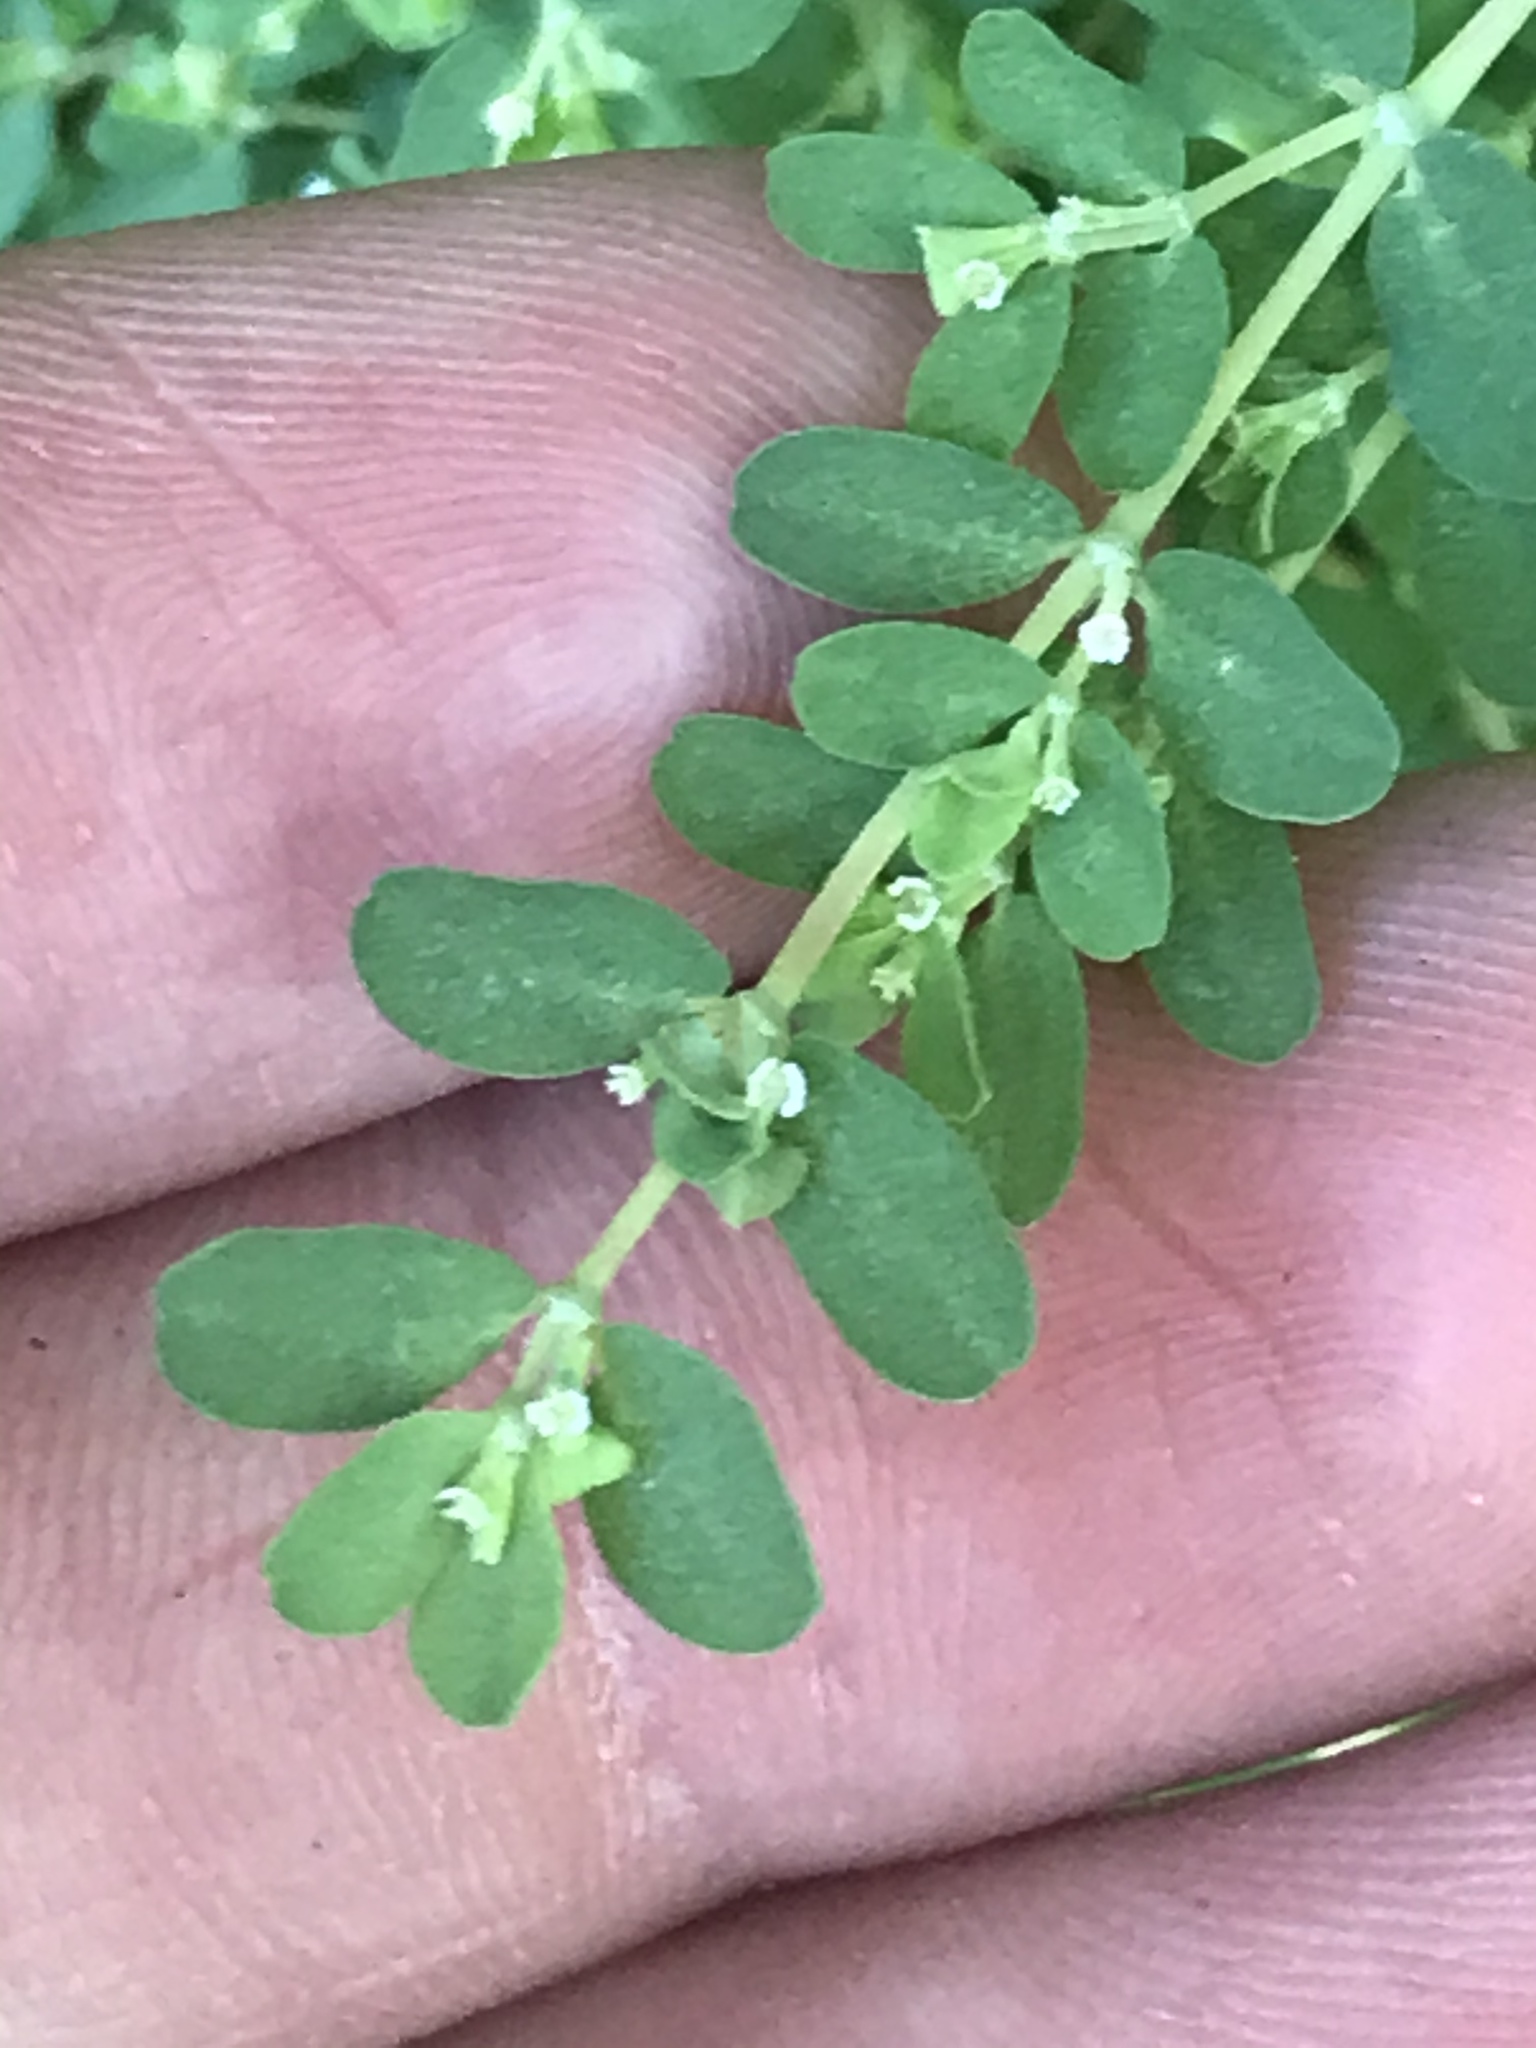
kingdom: Plantae
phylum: Tracheophyta
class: Magnoliopsida
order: Malpighiales
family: Euphorbiaceae
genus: Euphorbia
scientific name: Euphorbia serpens
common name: Matted sandmat
